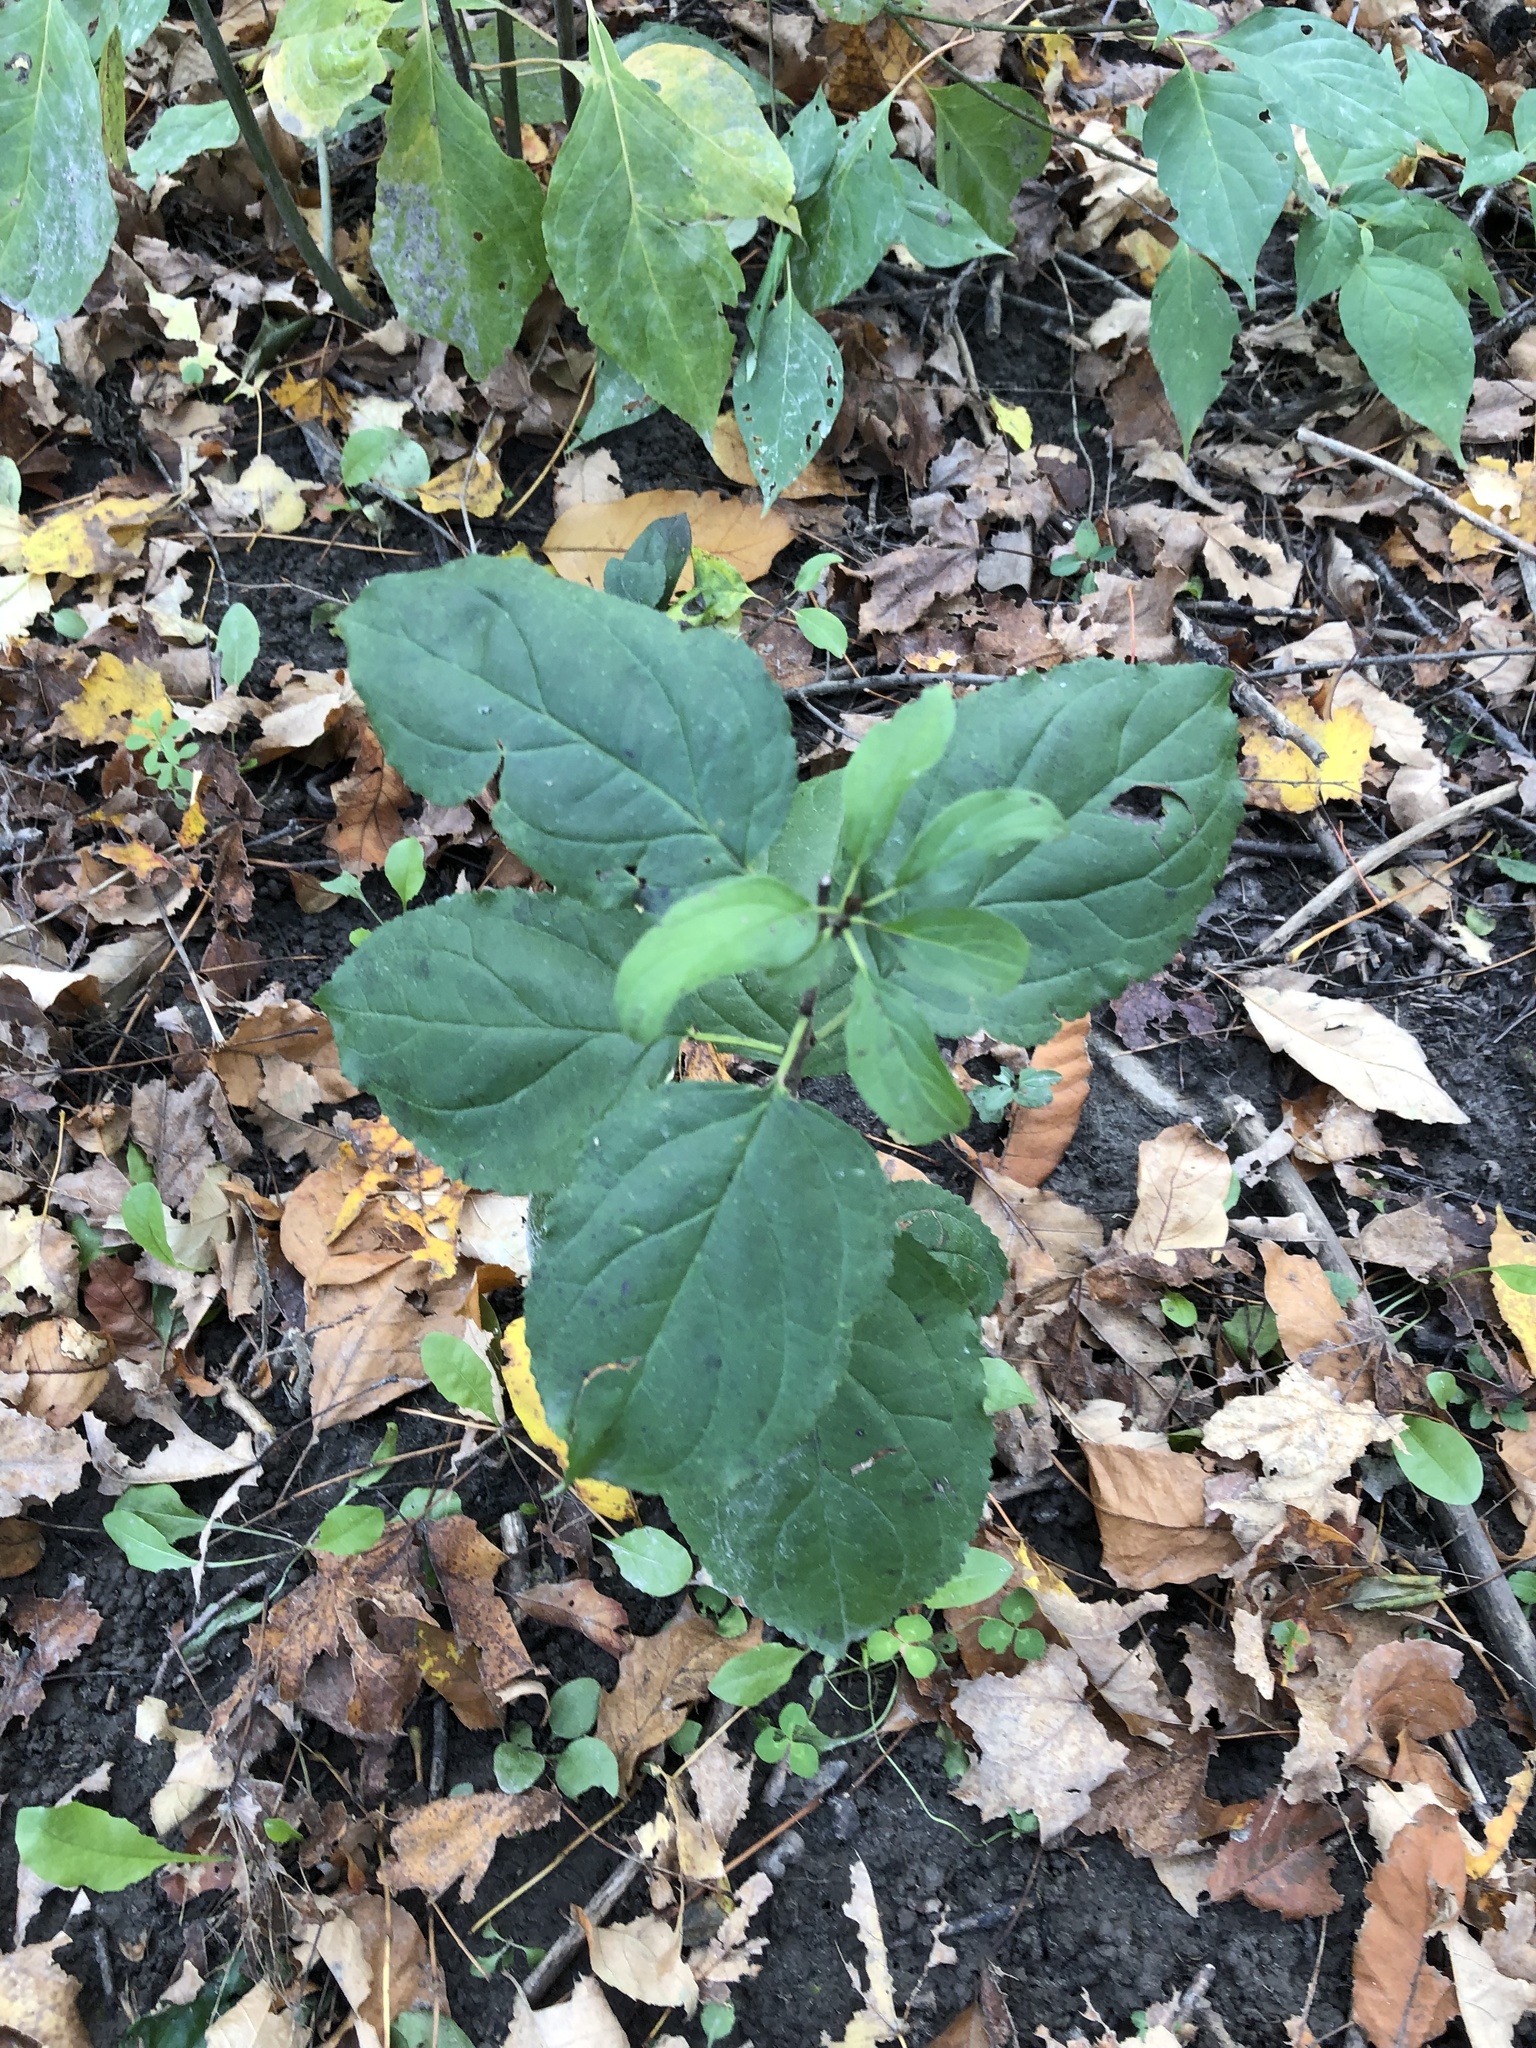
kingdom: Plantae
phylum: Tracheophyta
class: Magnoliopsida
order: Rosales
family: Rhamnaceae
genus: Rhamnus
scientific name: Rhamnus cathartica
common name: Common buckthorn
